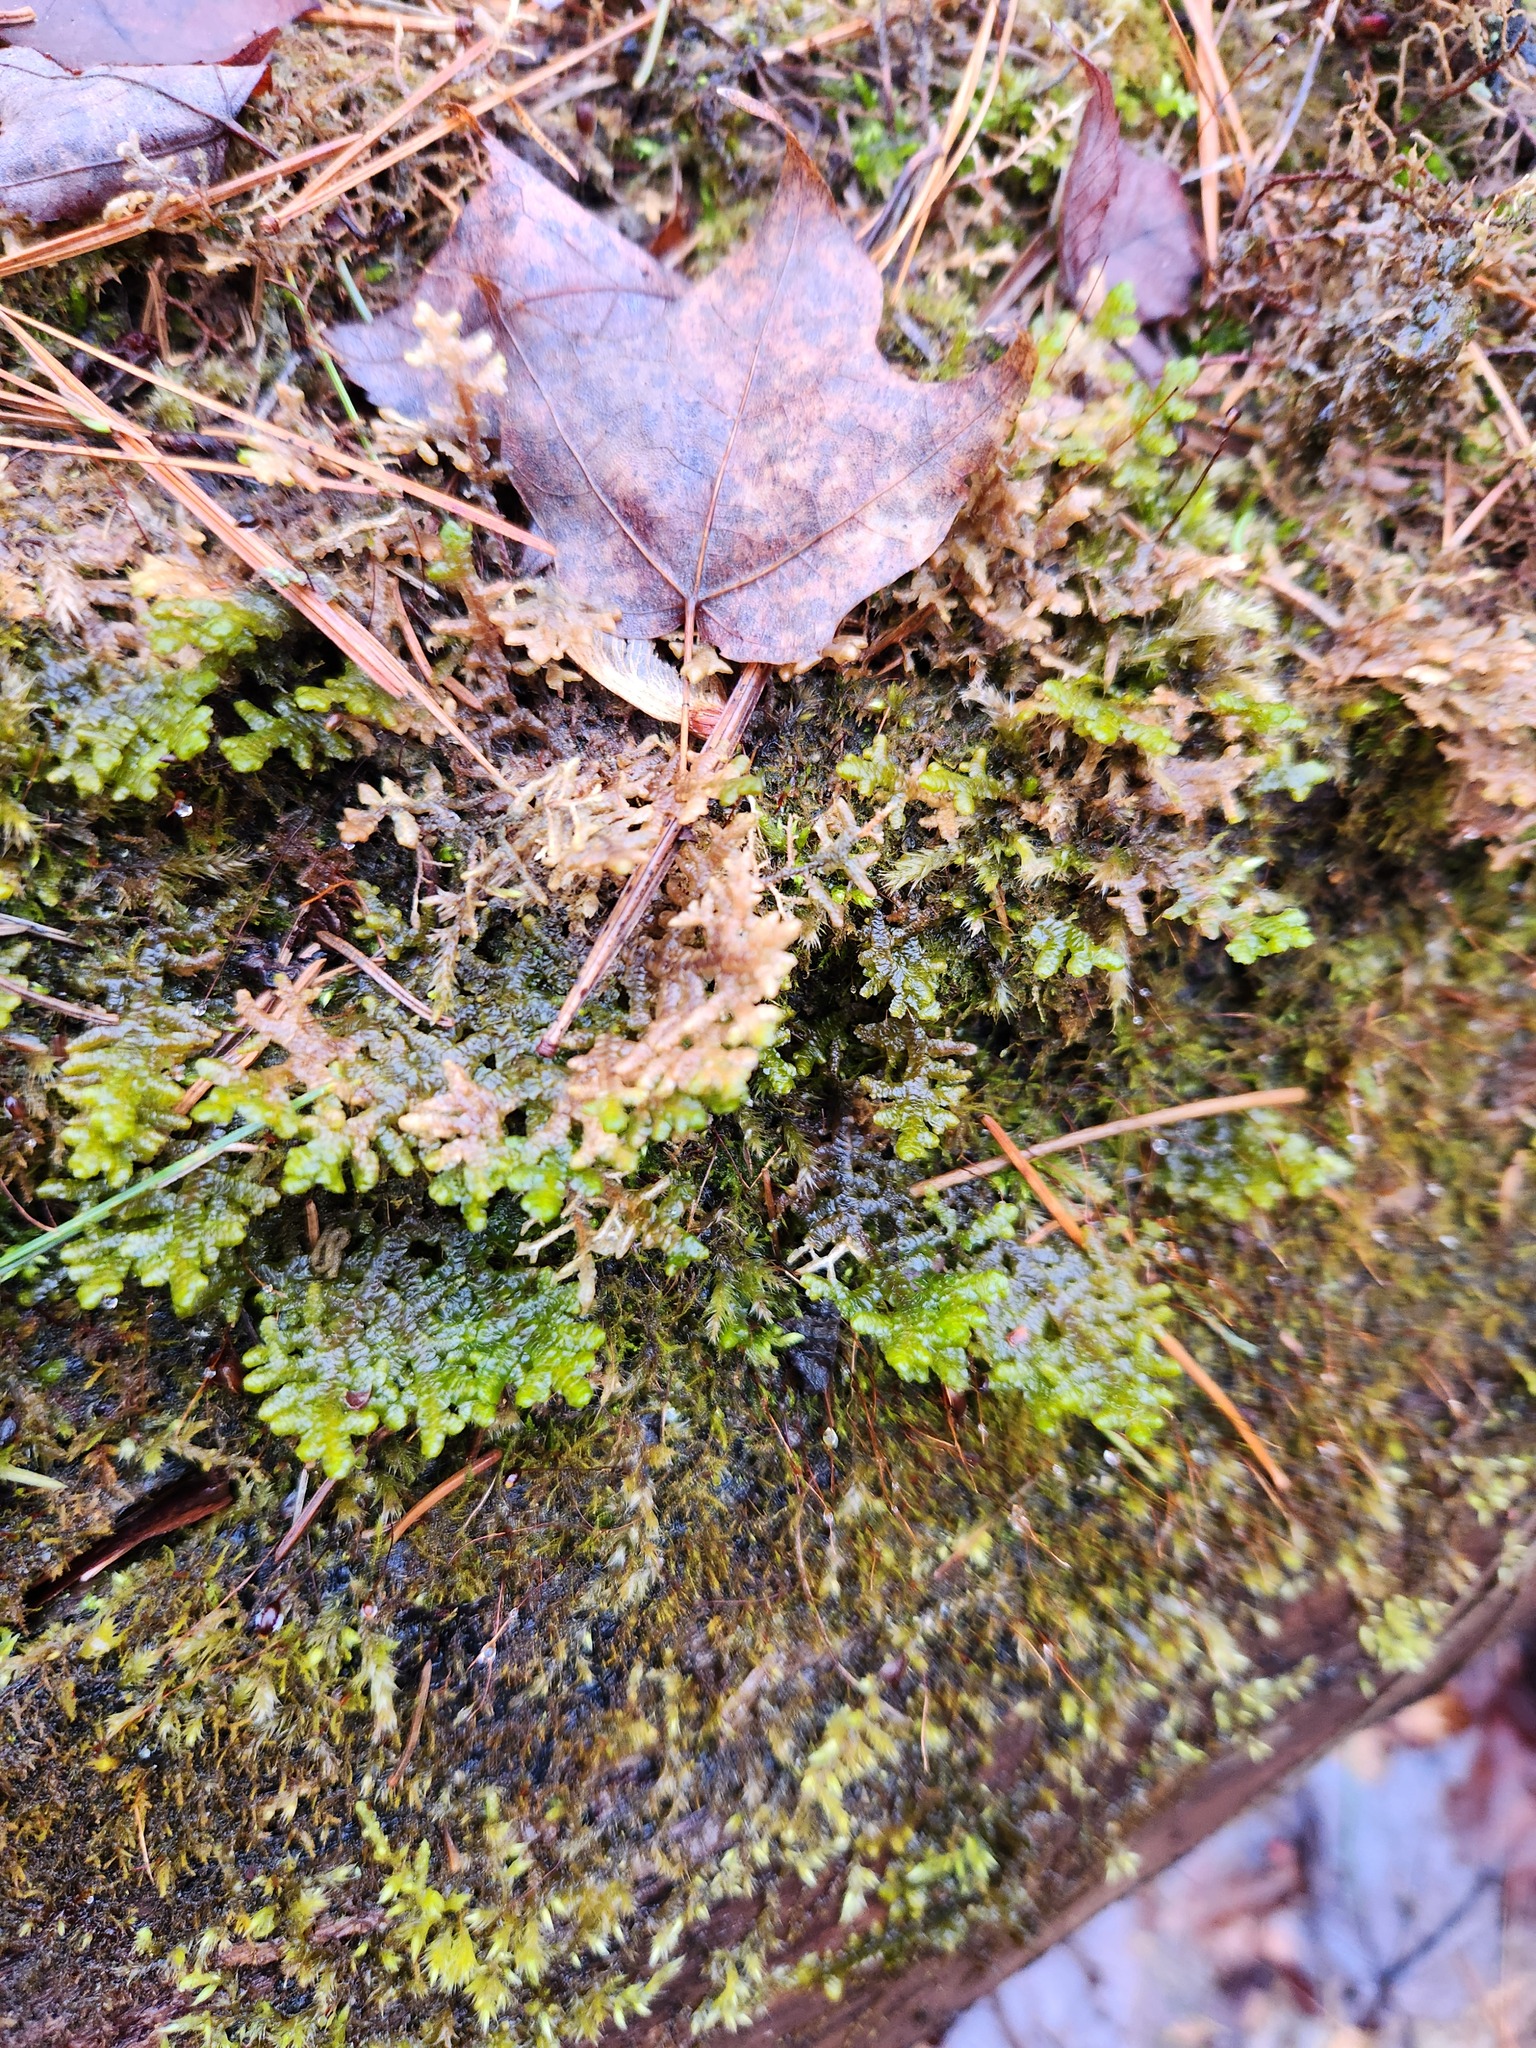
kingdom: Plantae
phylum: Marchantiophyta
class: Jungermanniopsida
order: Porellales
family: Porellaceae
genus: Porella
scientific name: Porella platyphylla
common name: Wall scalewort
